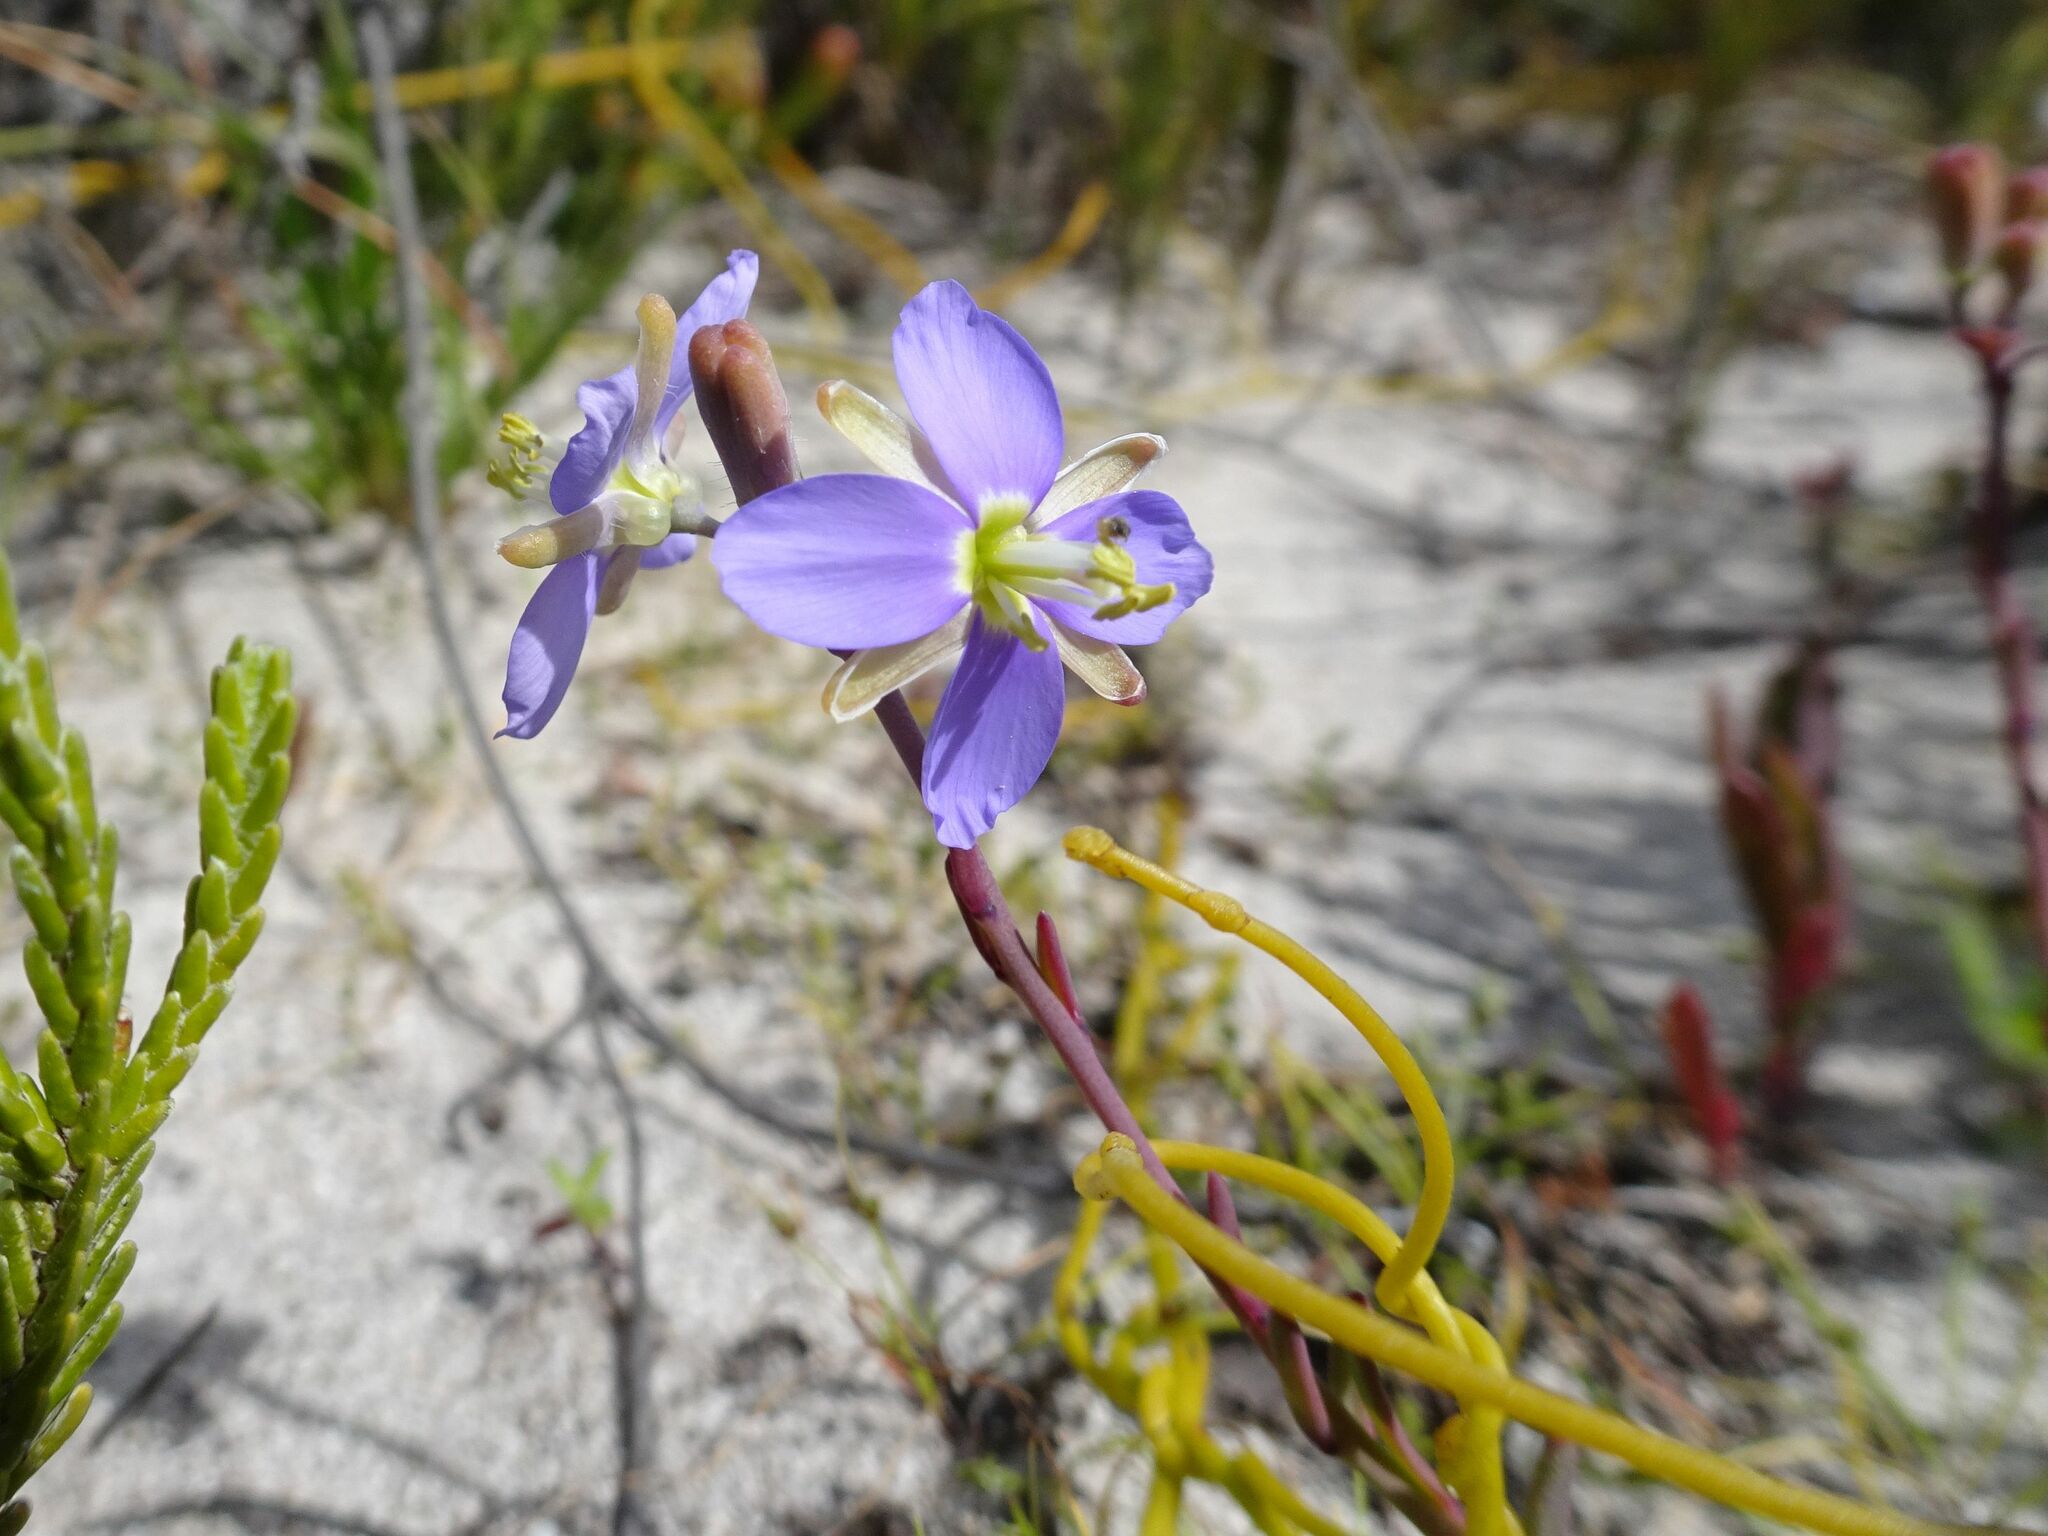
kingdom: Plantae
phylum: Tracheophyta
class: Magnoliopsida
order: Brassicales
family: Brassicaceae
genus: Heliophila
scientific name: Heliophila linearis
